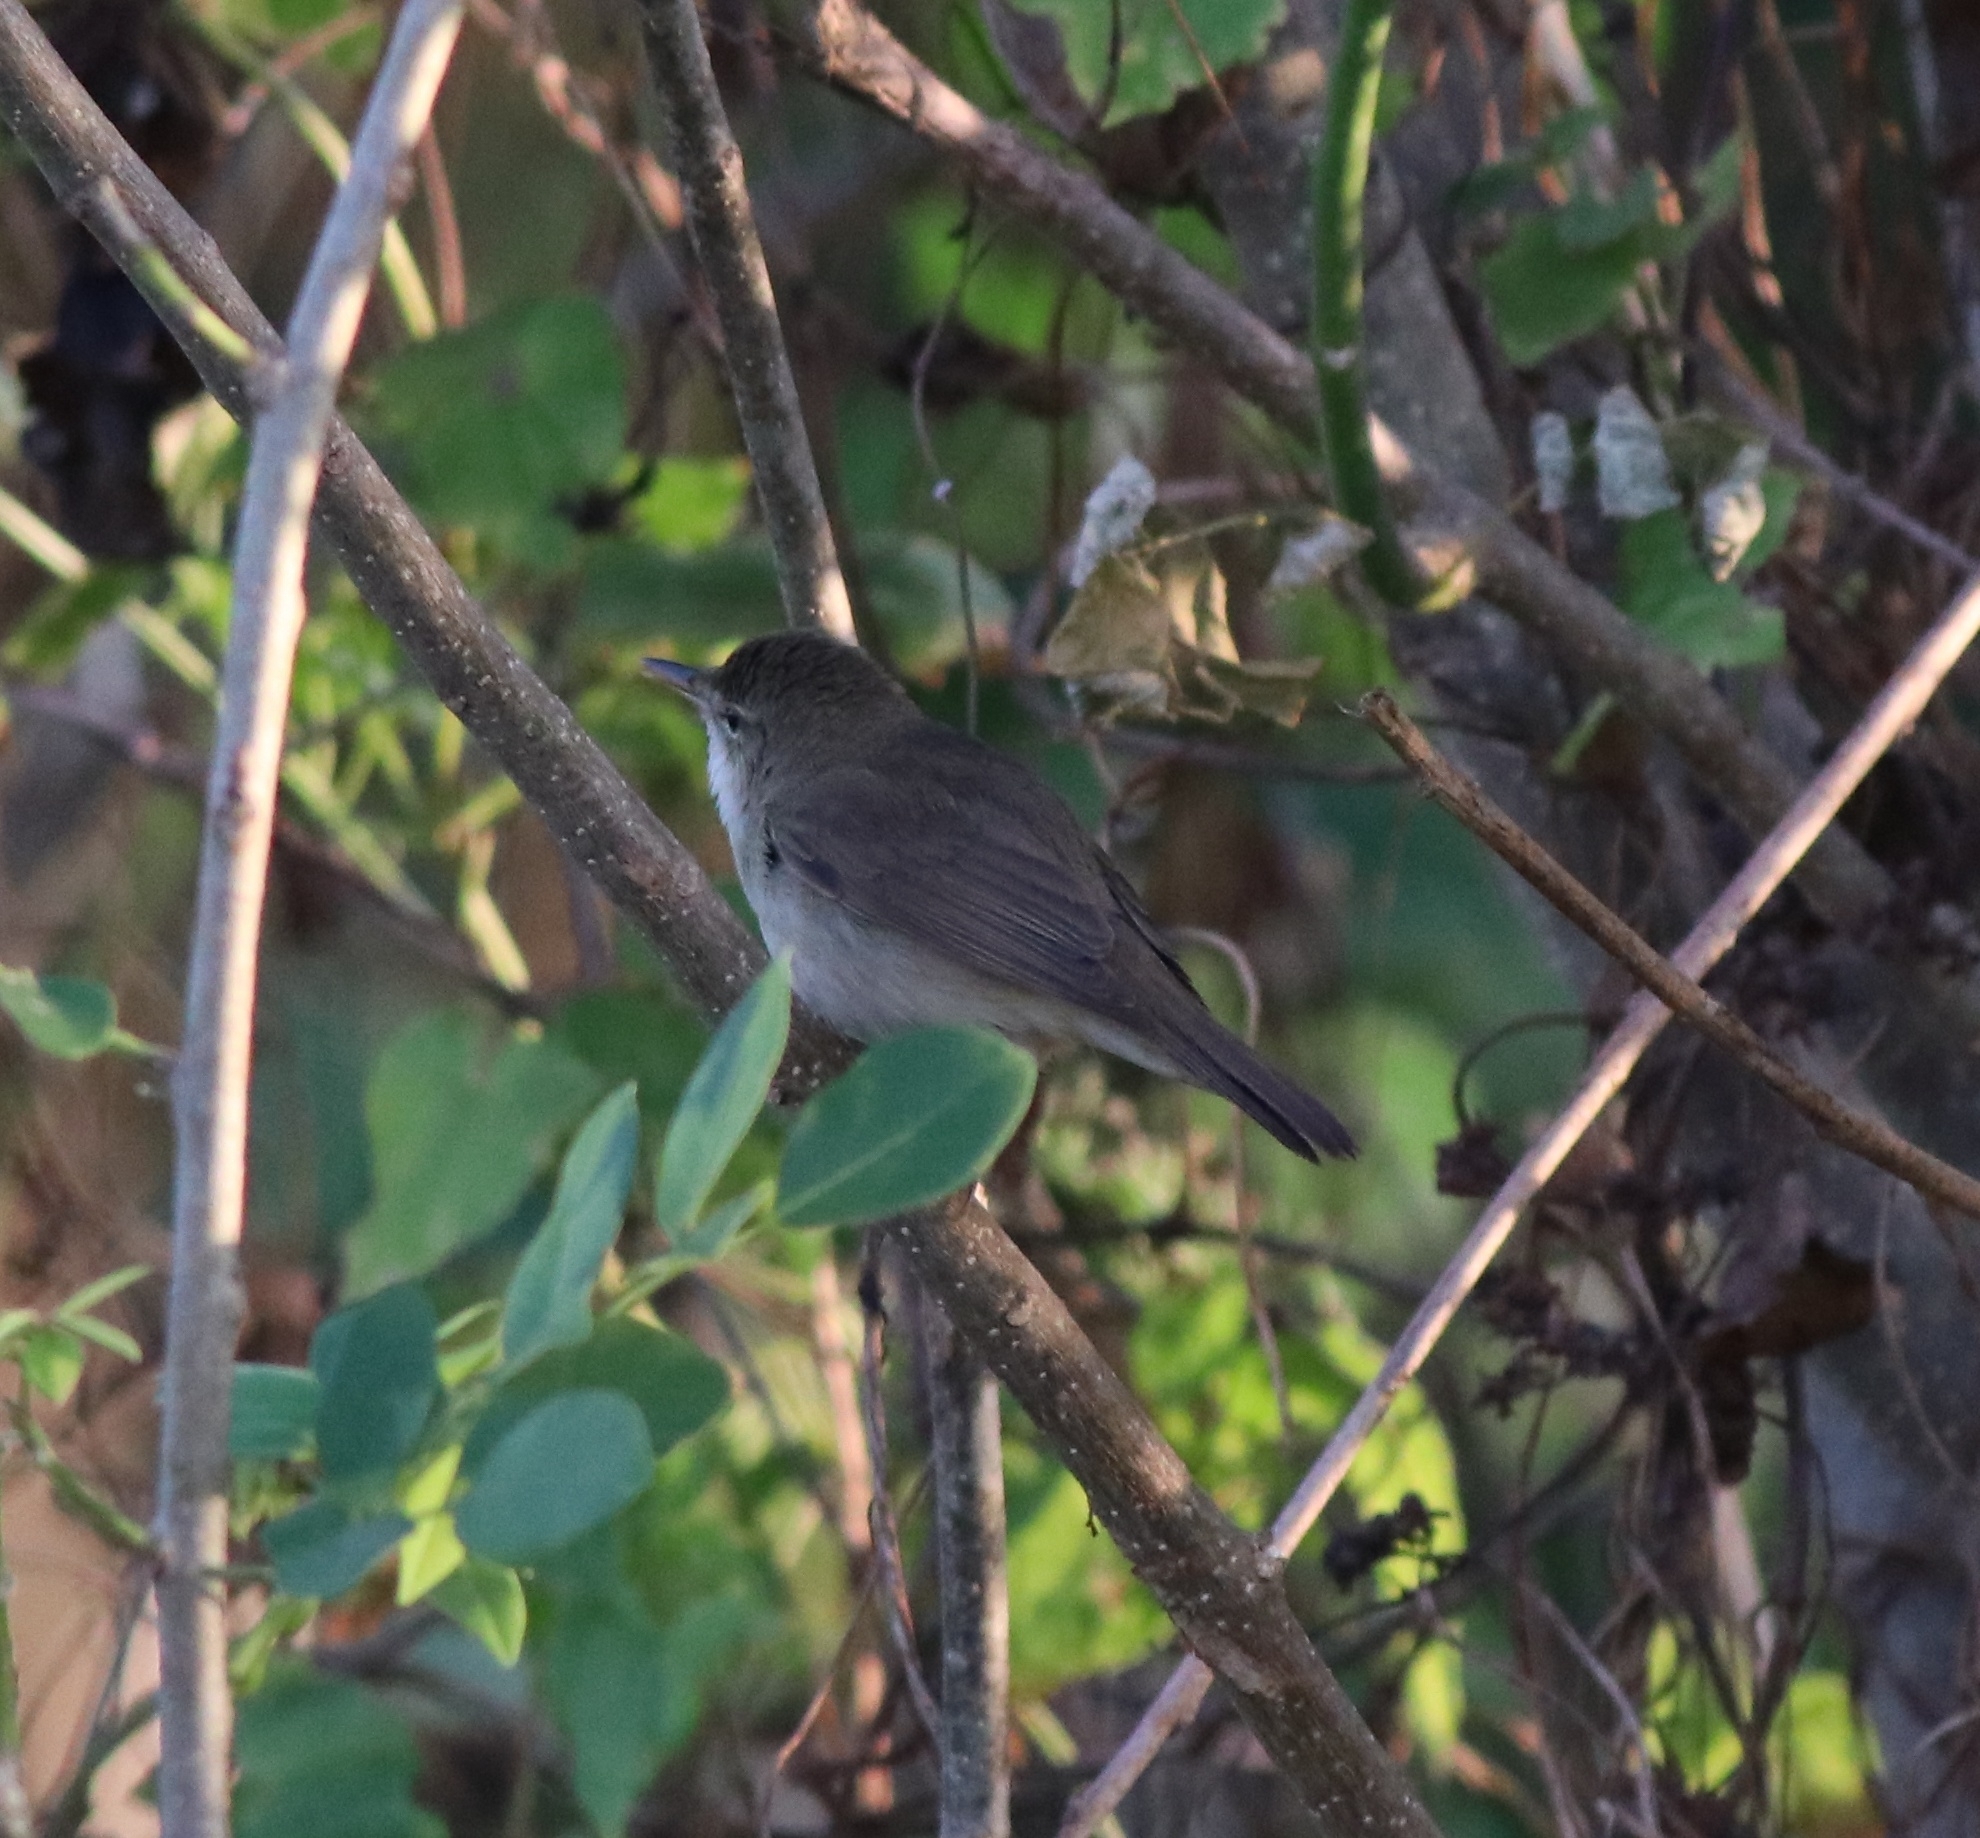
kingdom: Animalia
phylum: Chordata
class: Aves
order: Passeriformes
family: Acrocephalidae
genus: Acrocephalus
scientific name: Acrocephalus dumetorum
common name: Blyth's reed warbler
